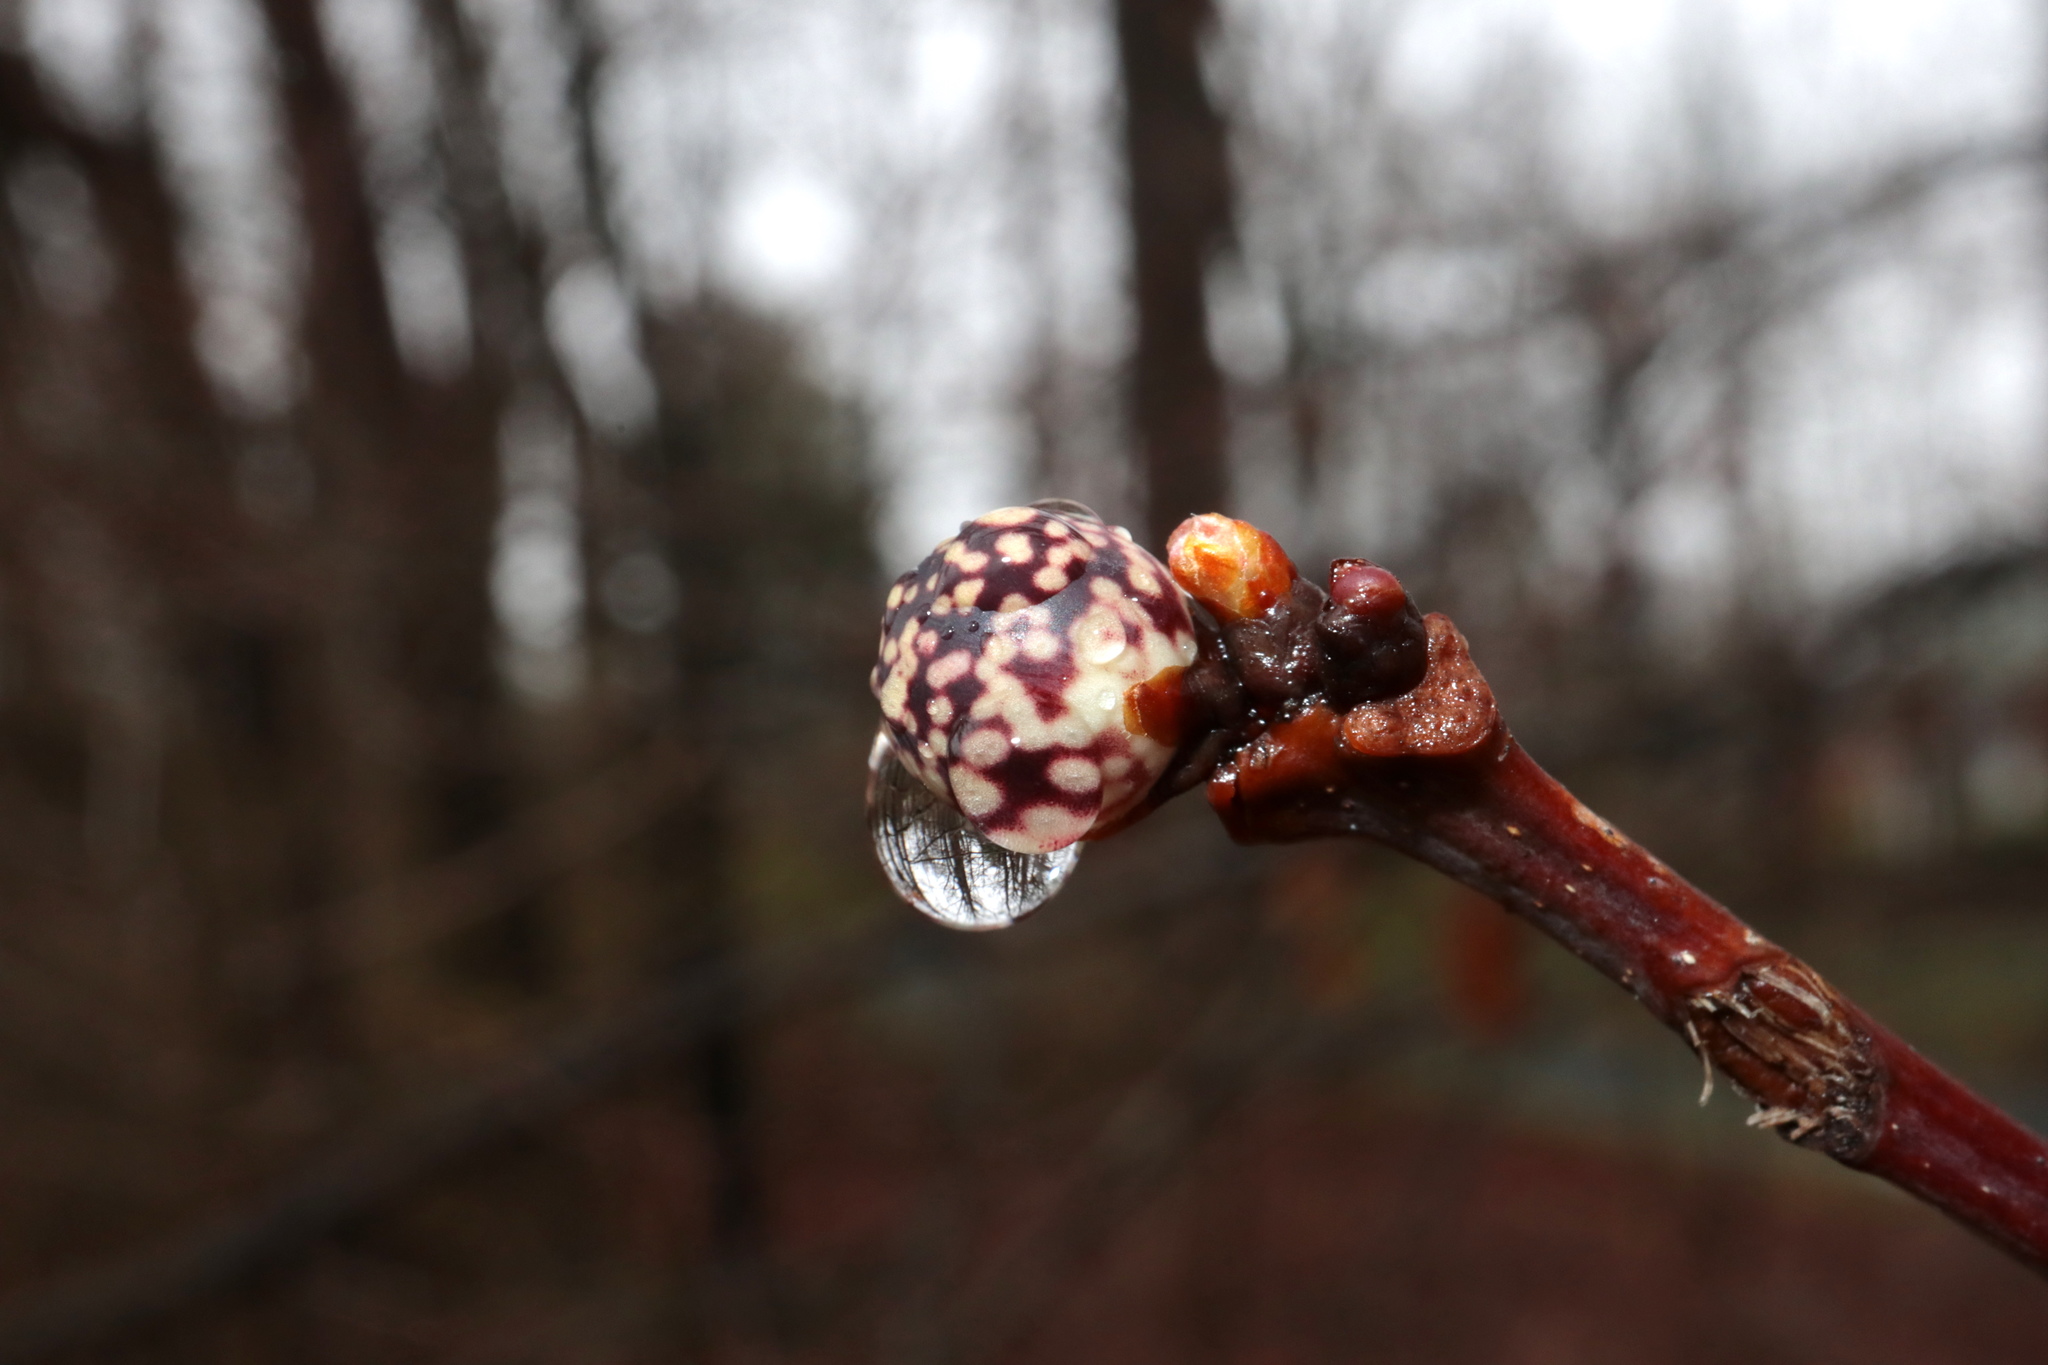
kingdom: Animalia
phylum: Arthropoda
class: Insecta
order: Hymenoptera
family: Cynipidae
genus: Andricus
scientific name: Andricus
